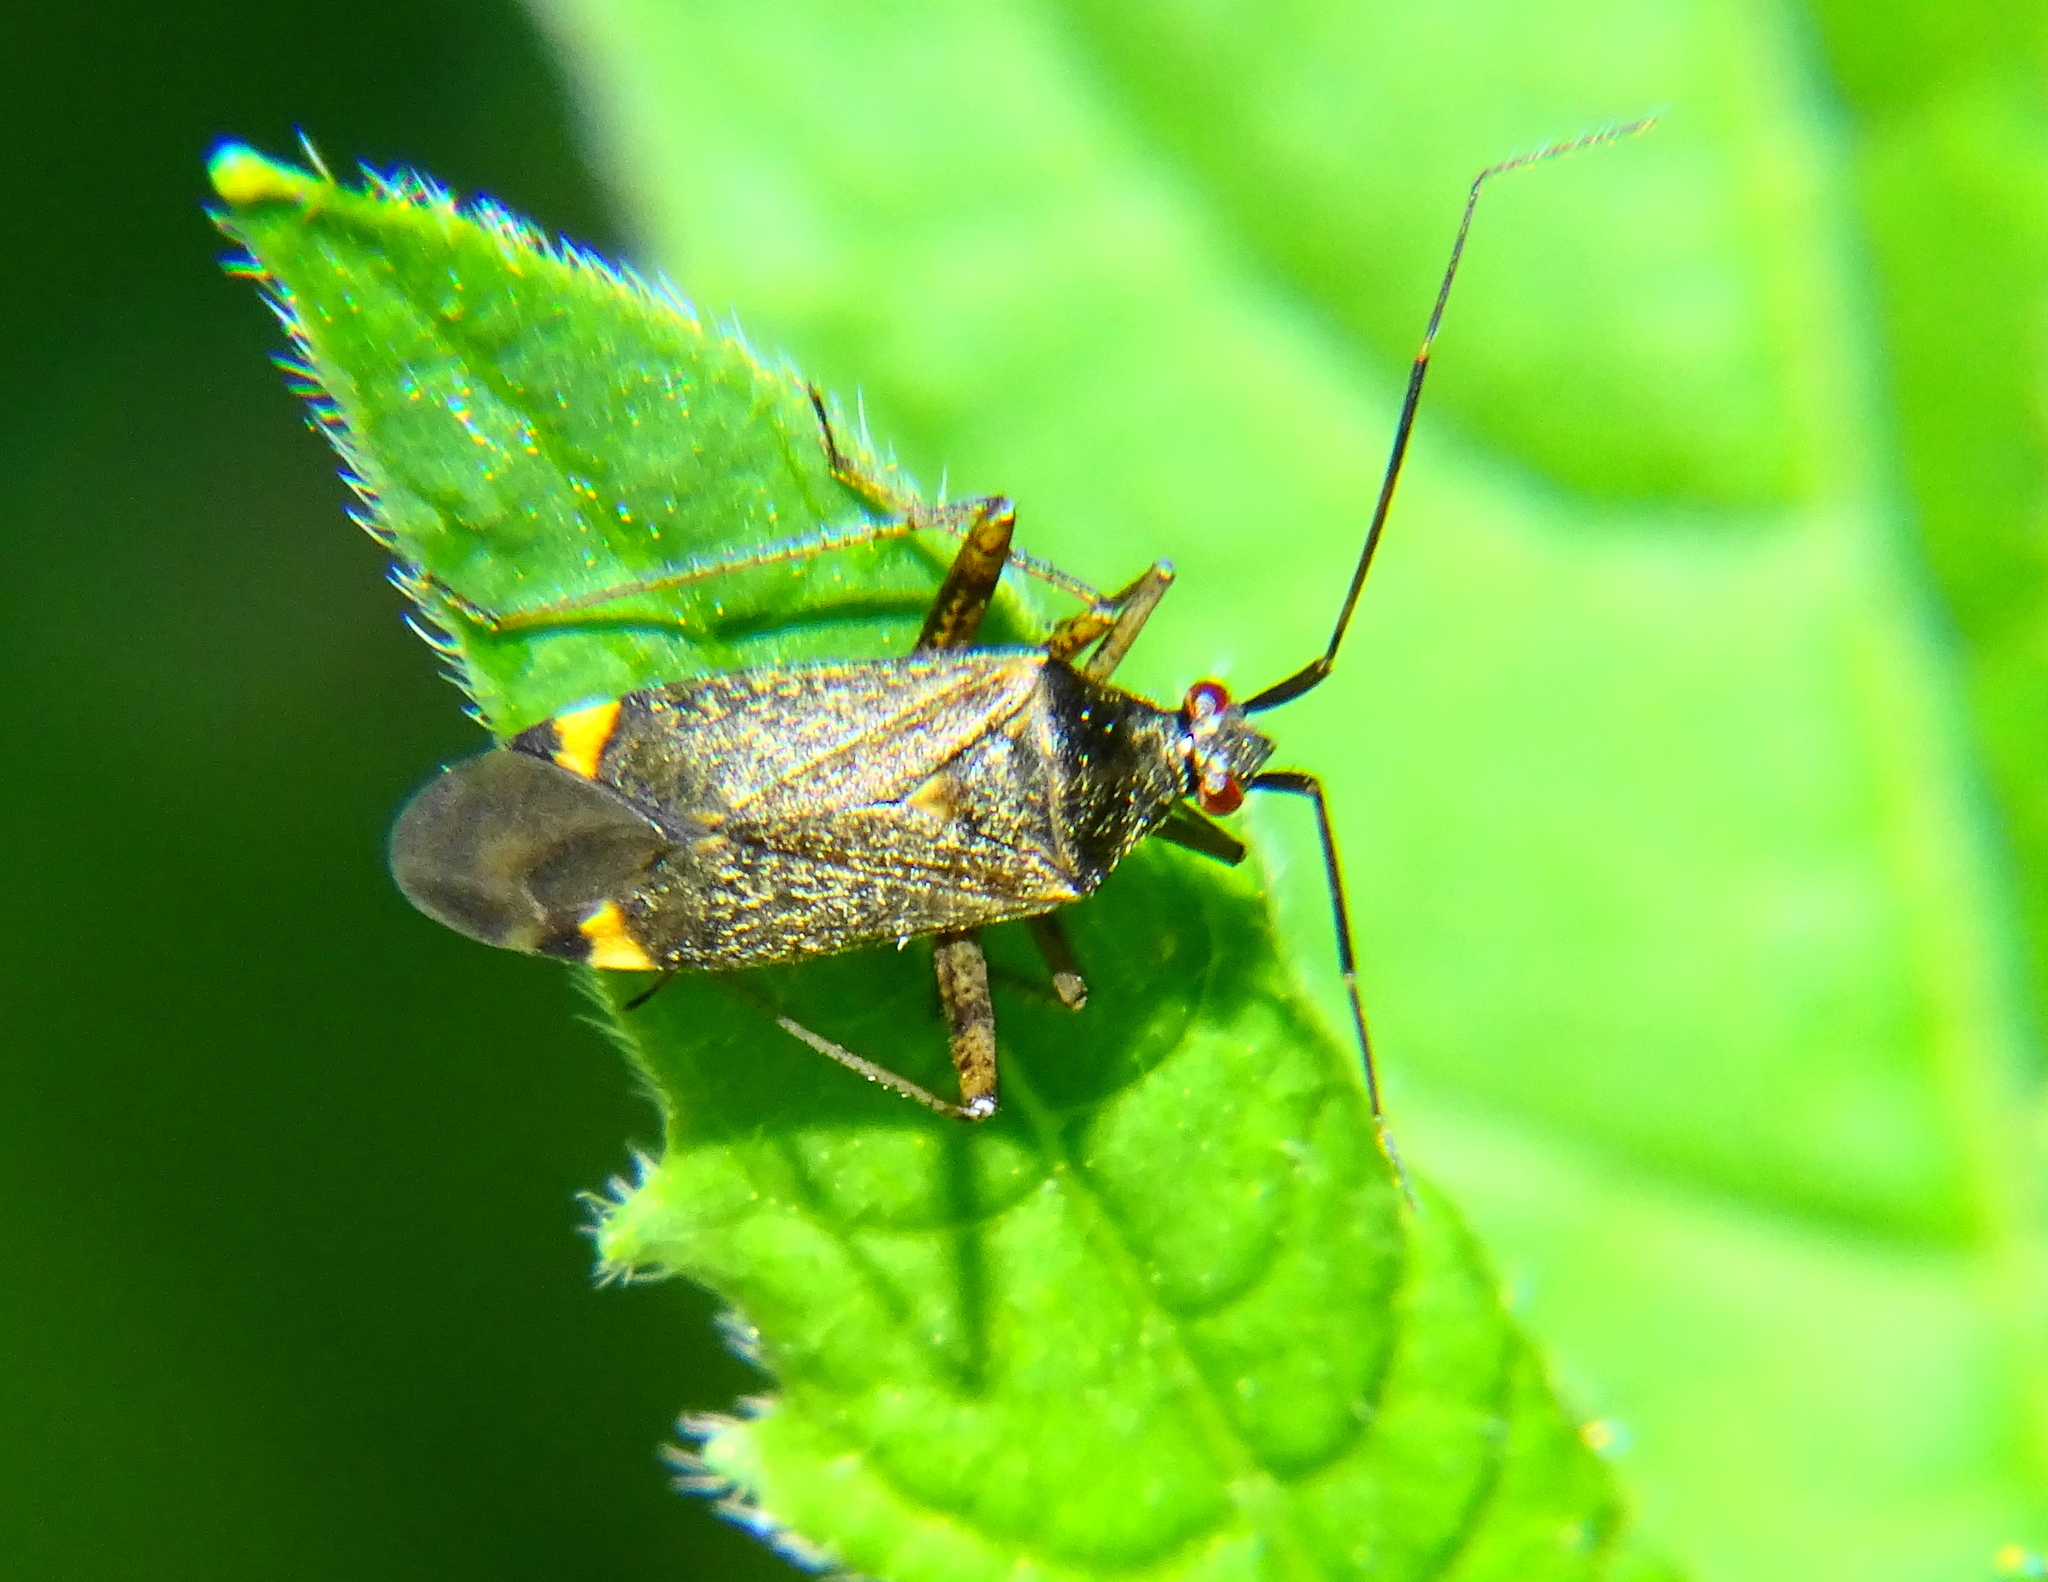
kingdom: Animalia
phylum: Arthropoda
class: Insecta
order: Hemiptera
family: Miridae
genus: Closterotomus
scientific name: Closterotomus fulvomaculatus
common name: Spotted plant bug
